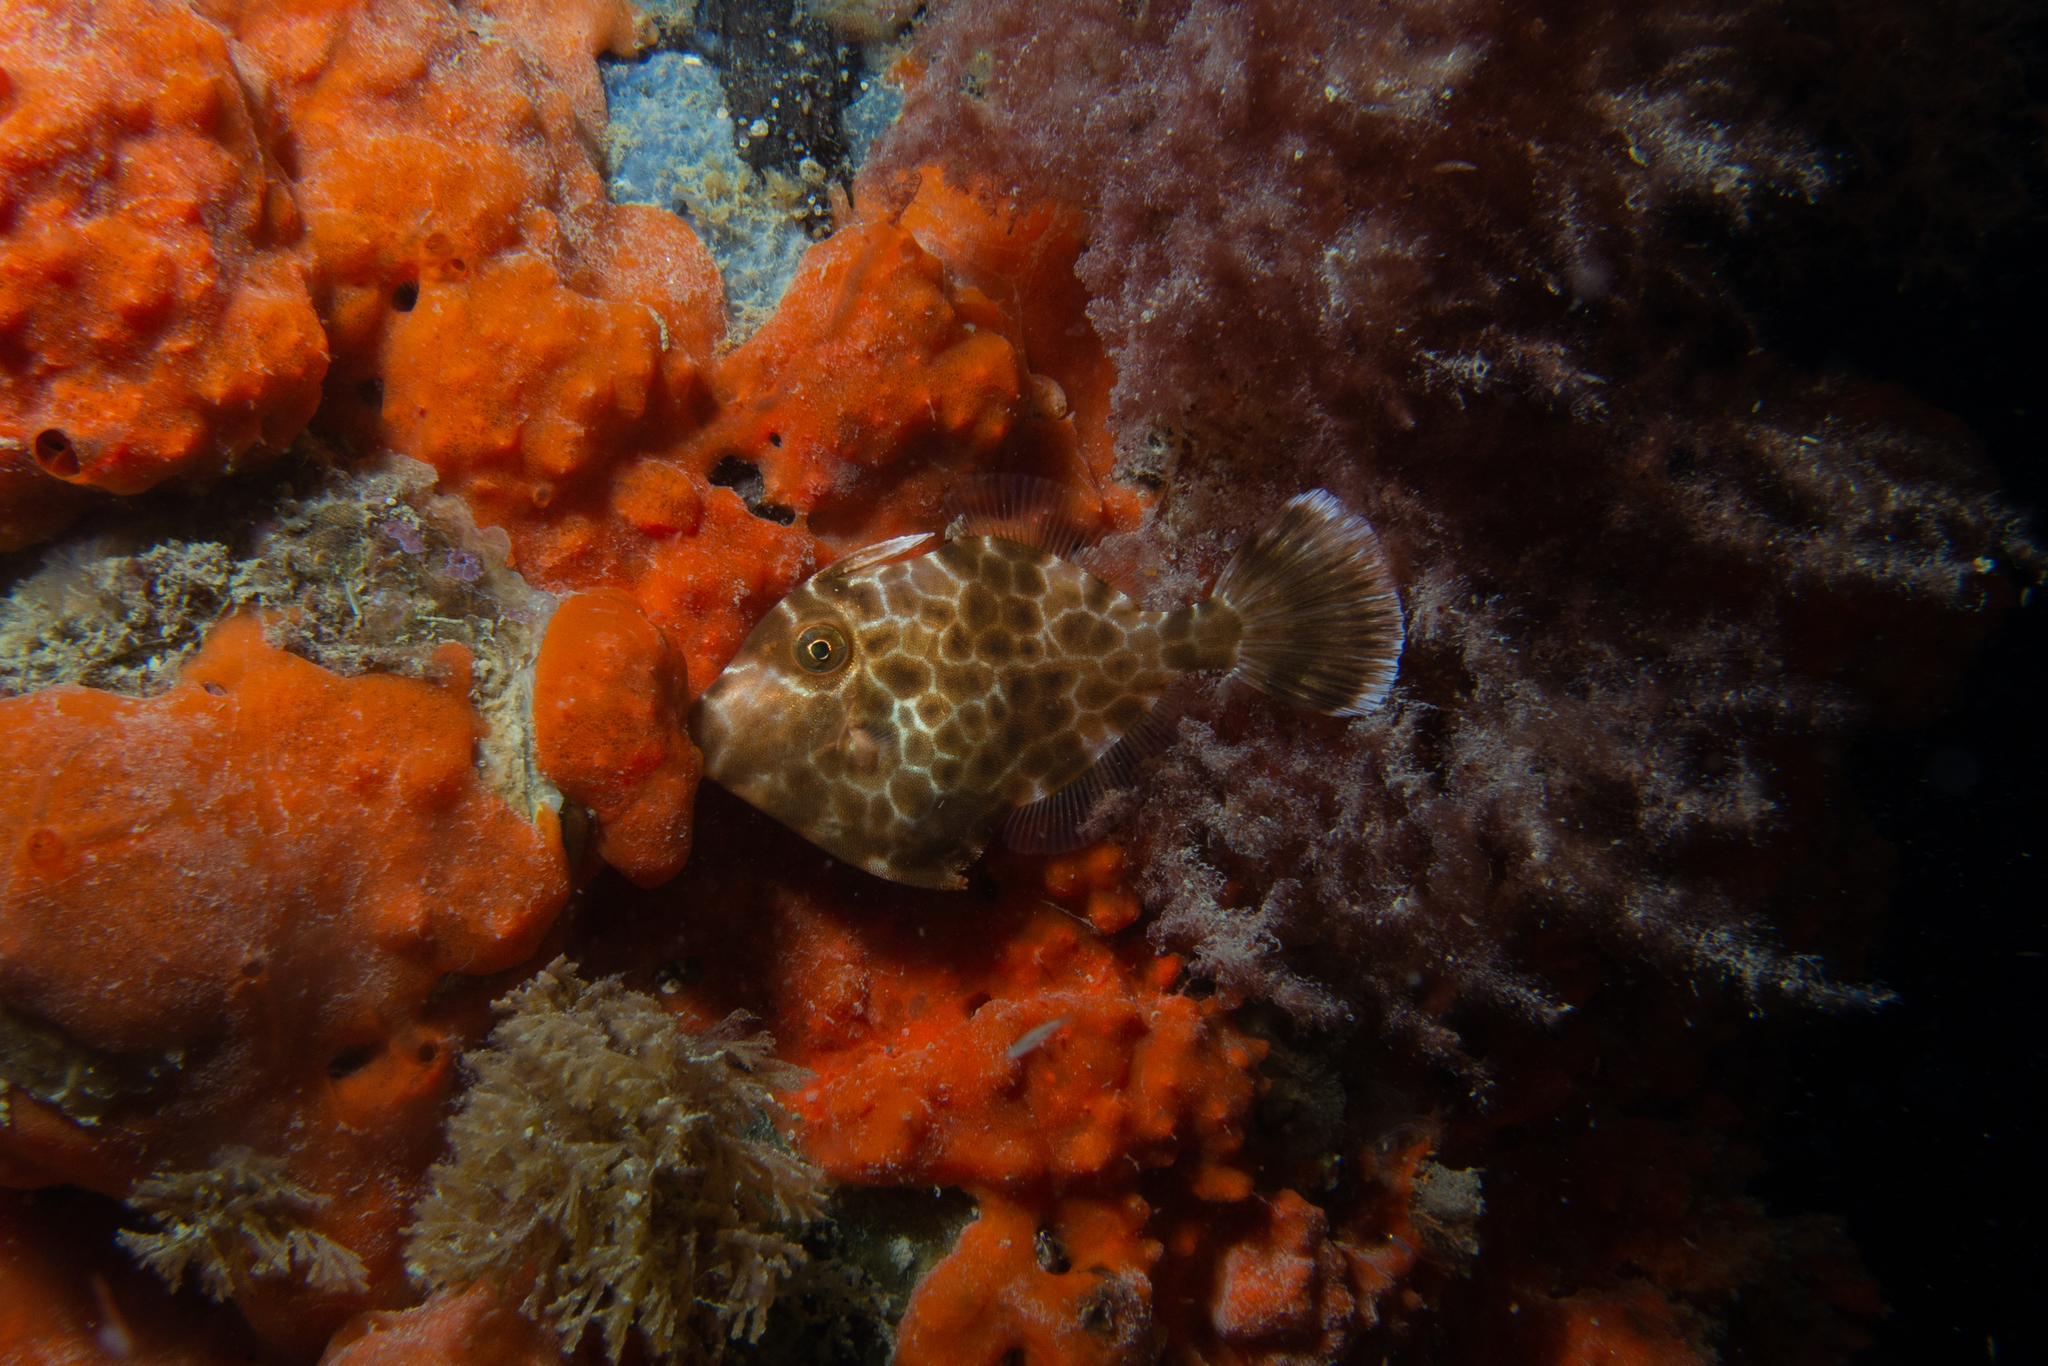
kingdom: Animalia
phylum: Chordata
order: Tetraodontiformes
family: Monacanthidae
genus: Eubalichthys
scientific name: Eubalichthys gunnii
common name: Gunn's leatherjacket
